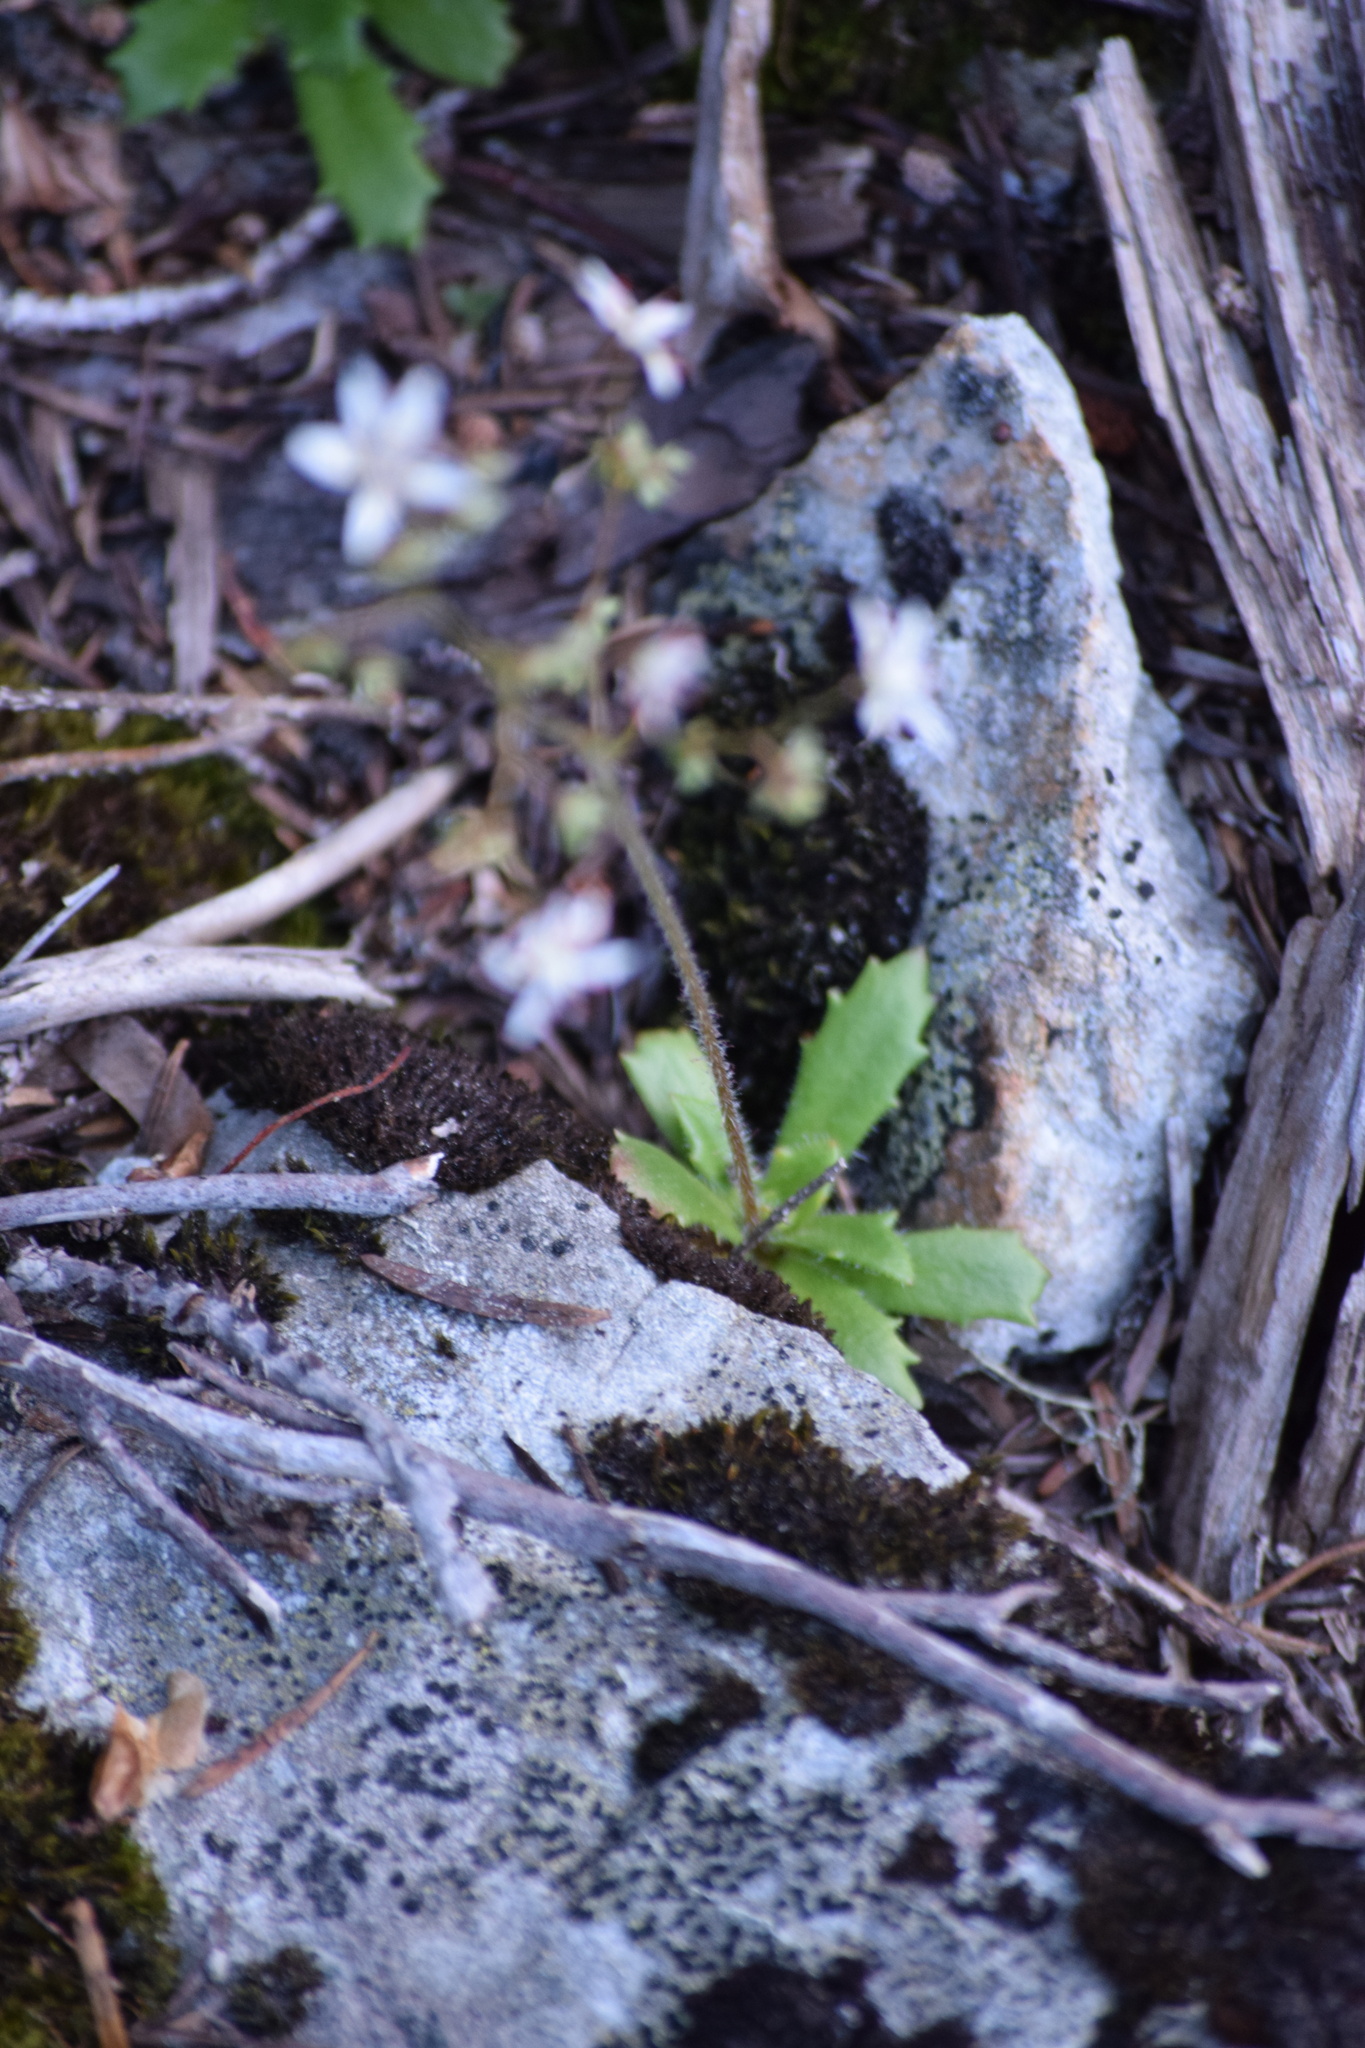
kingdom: Plantae
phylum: Tracheophyta
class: Magnoliopsida
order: Saxifragales
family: Saxifragaceae
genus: Micranthes
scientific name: Micranthes ferruginea
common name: Rusty saxifrage
